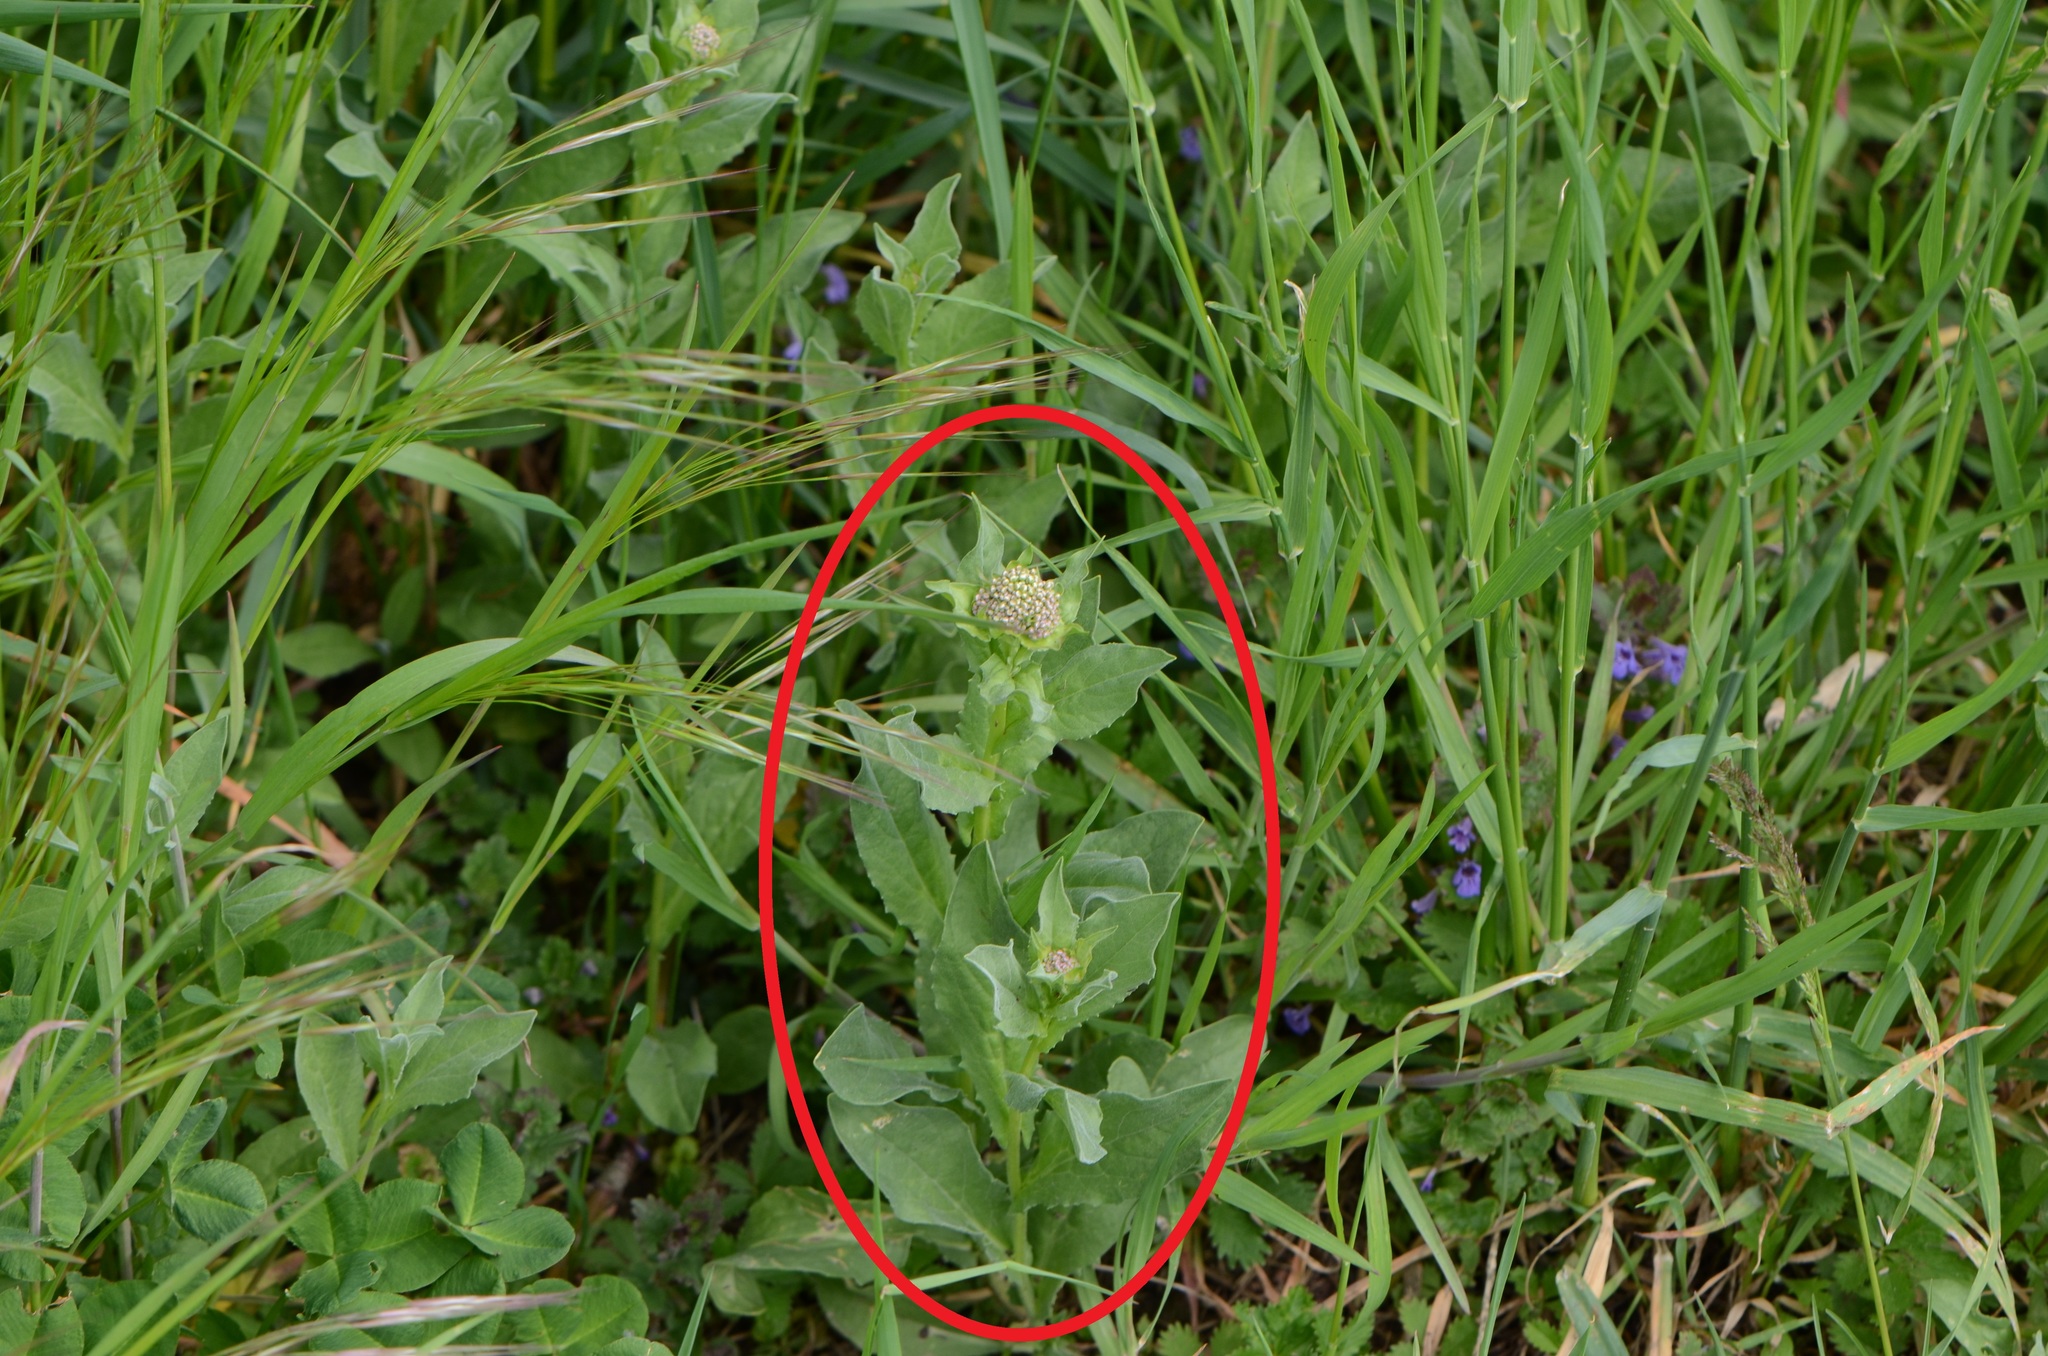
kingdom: Plantae
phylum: Tracheophyta
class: Magnoliopsida
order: Brassicales
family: Brassicaceae
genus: Lepidium
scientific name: Lepidium draba
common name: Hoary cress
